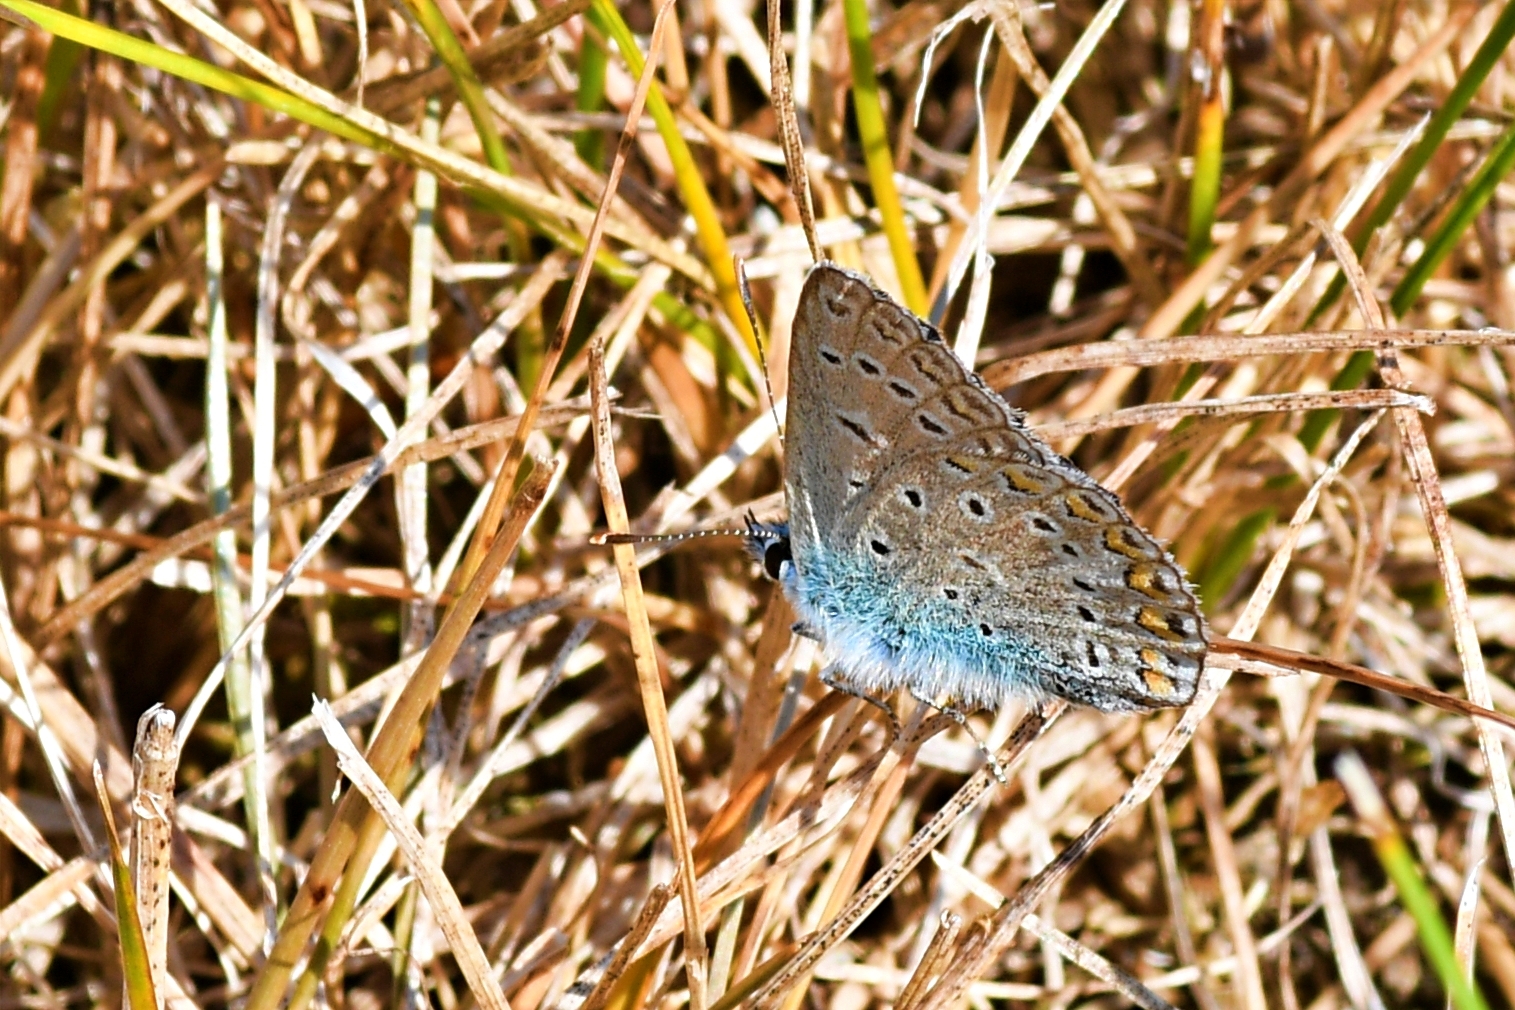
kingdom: Animalia
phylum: Arthropoda
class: Insecta
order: Lepidoptera
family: Lycaenidae
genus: Polyommatus
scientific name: Polyommatus icarus
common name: Common blue
